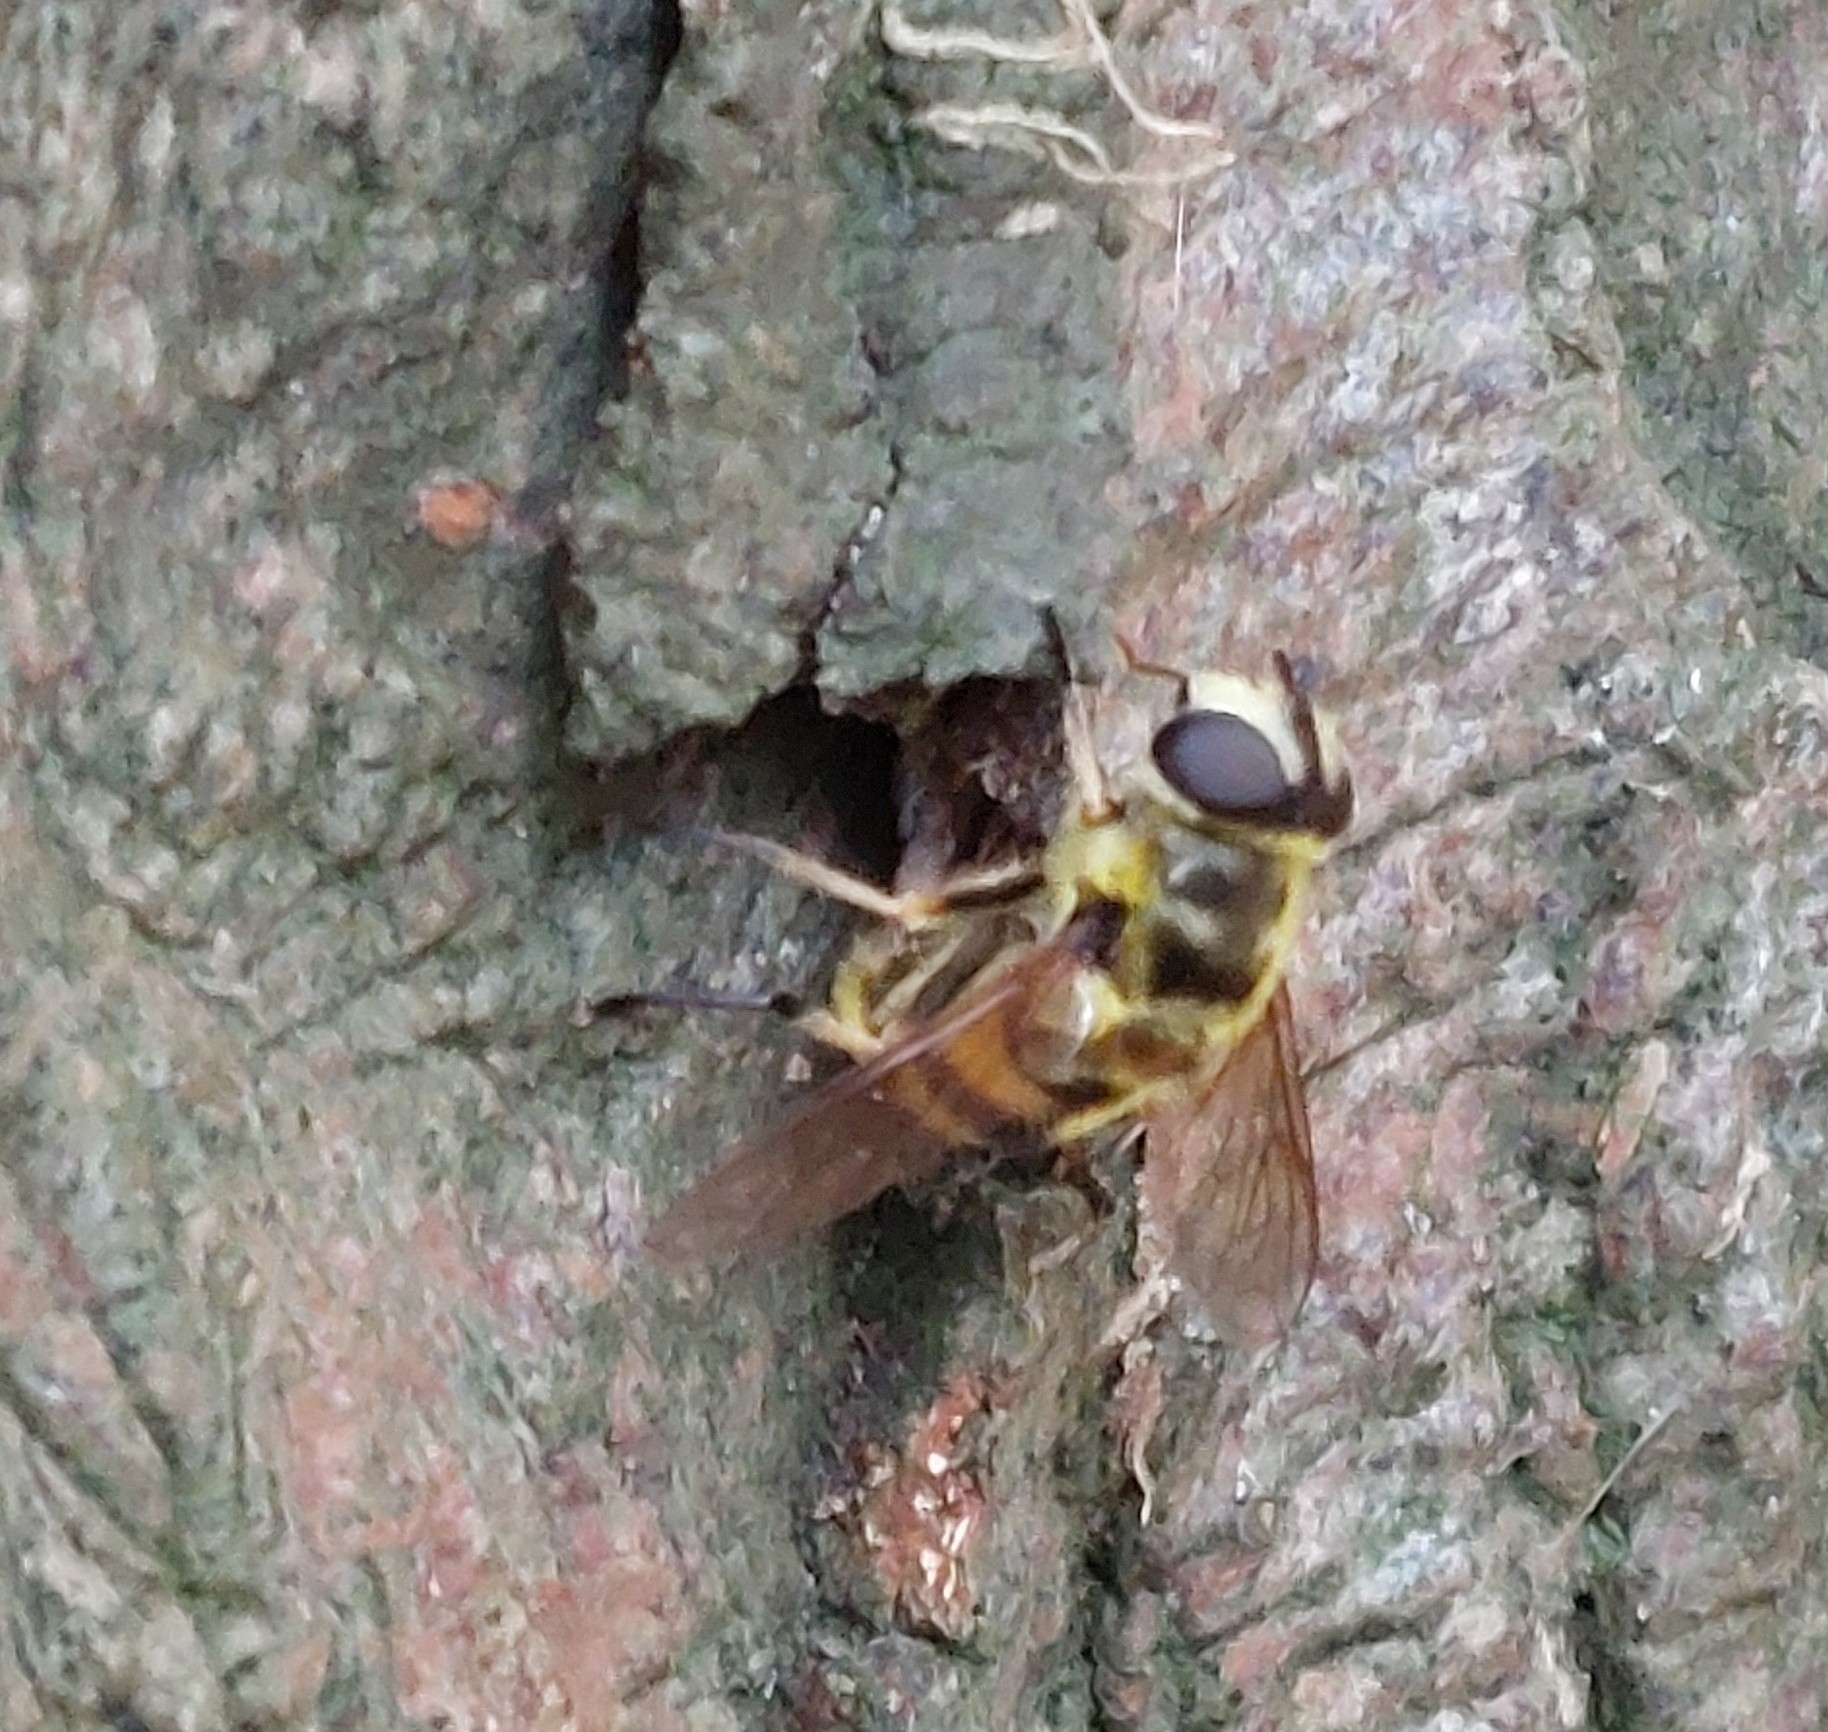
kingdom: Animalia
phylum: Arthropoda
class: Insecta
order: Diptera
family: Syrphidae
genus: Myathropa
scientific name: Myathropa florea
